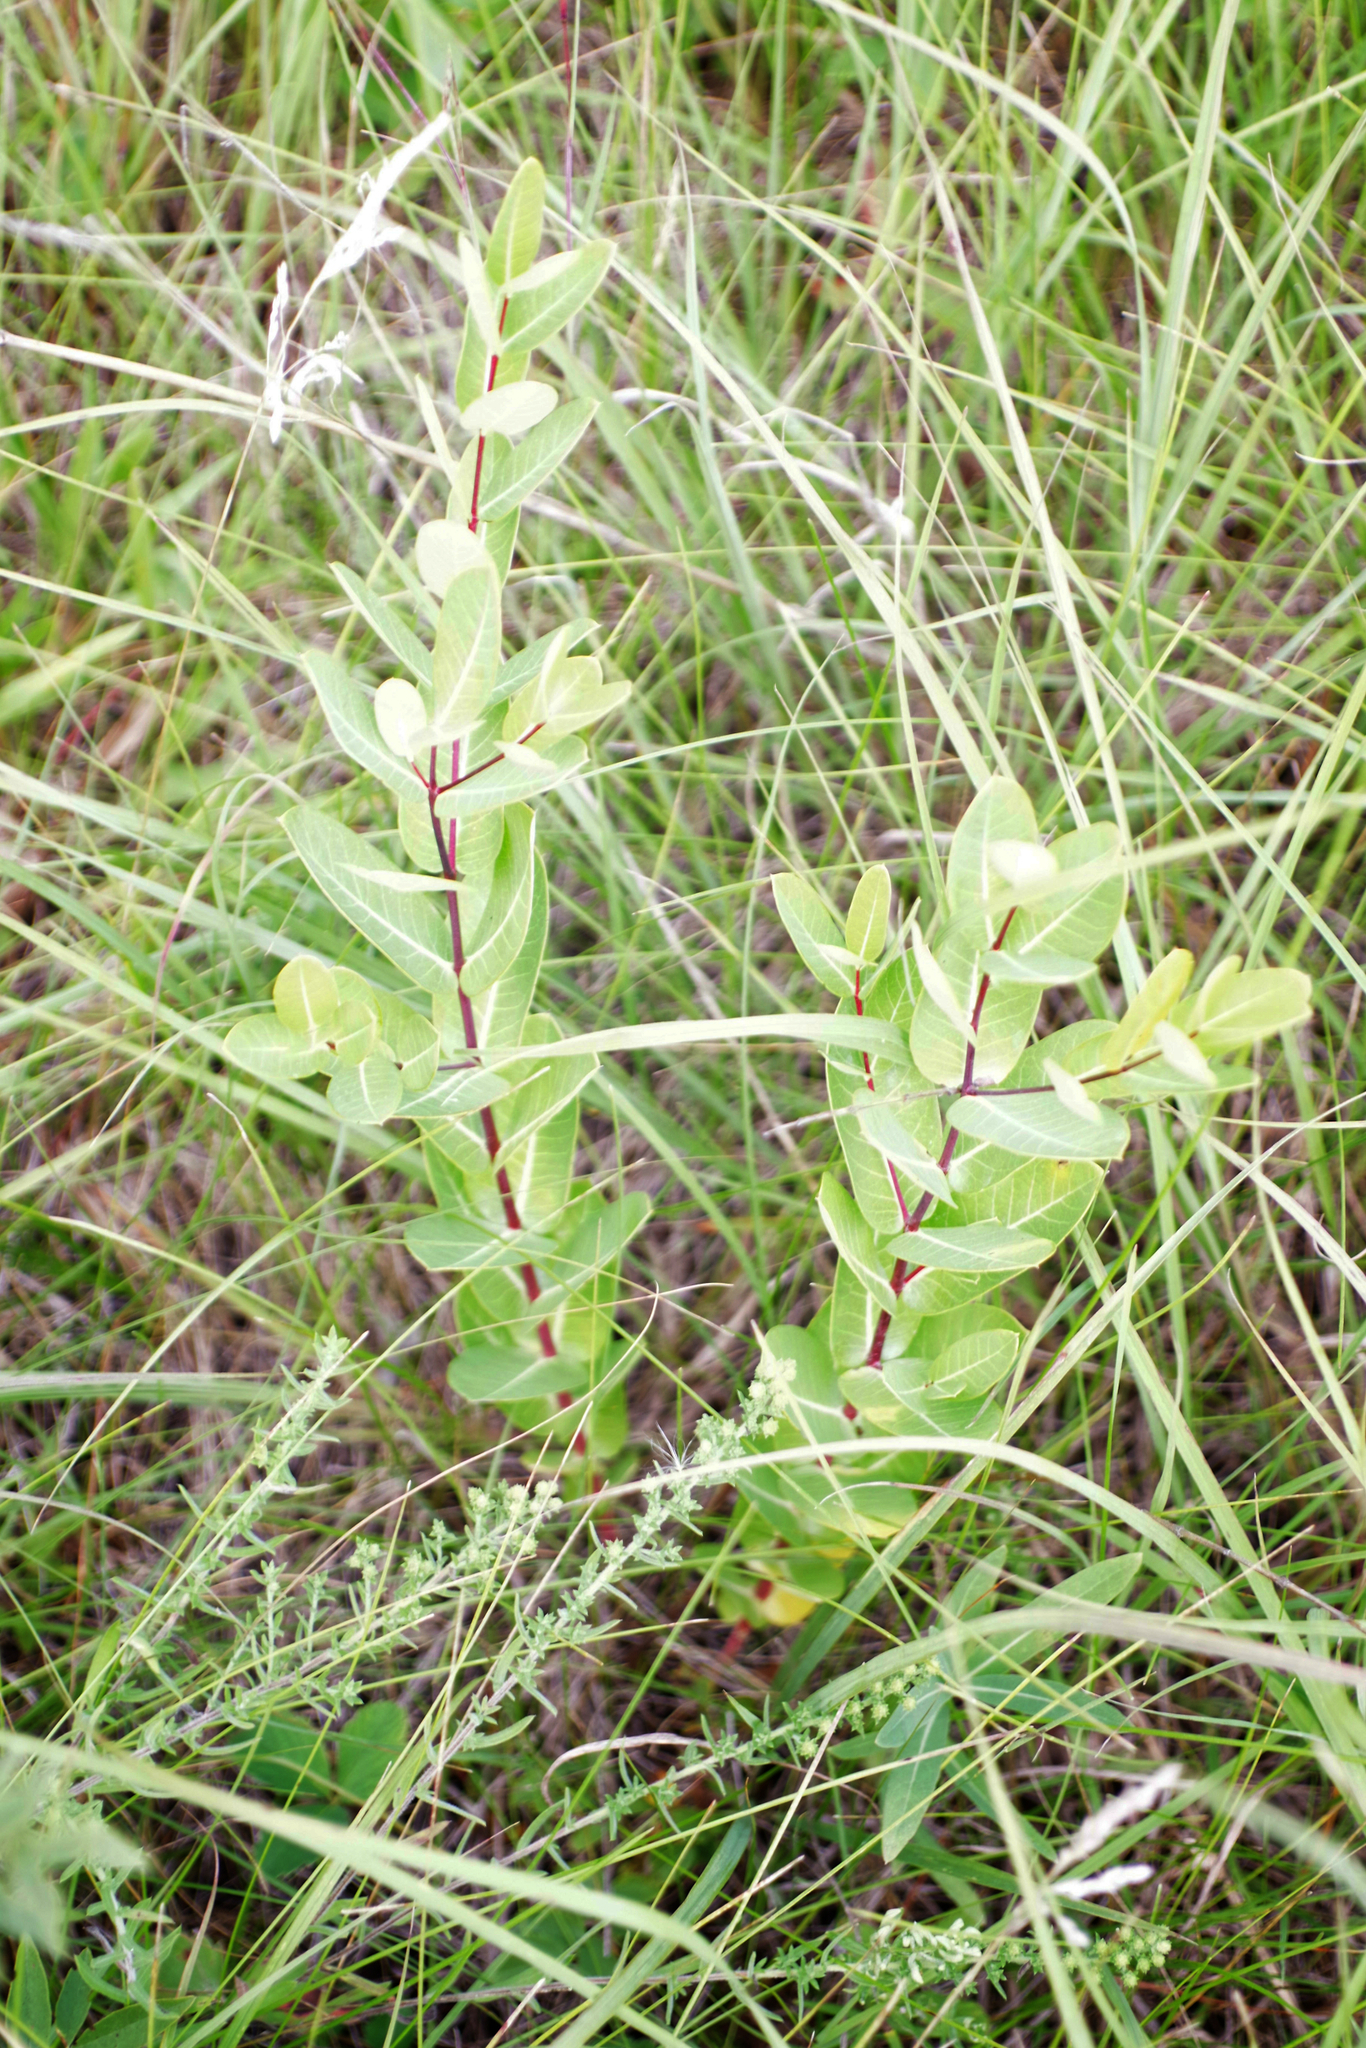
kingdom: Plantae
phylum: Tracheophyta
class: Magnoliopsida
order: Gentianales
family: Apocynaceae
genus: Apocynum
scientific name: Apocynum cannabinum
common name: Hemp dogbane
